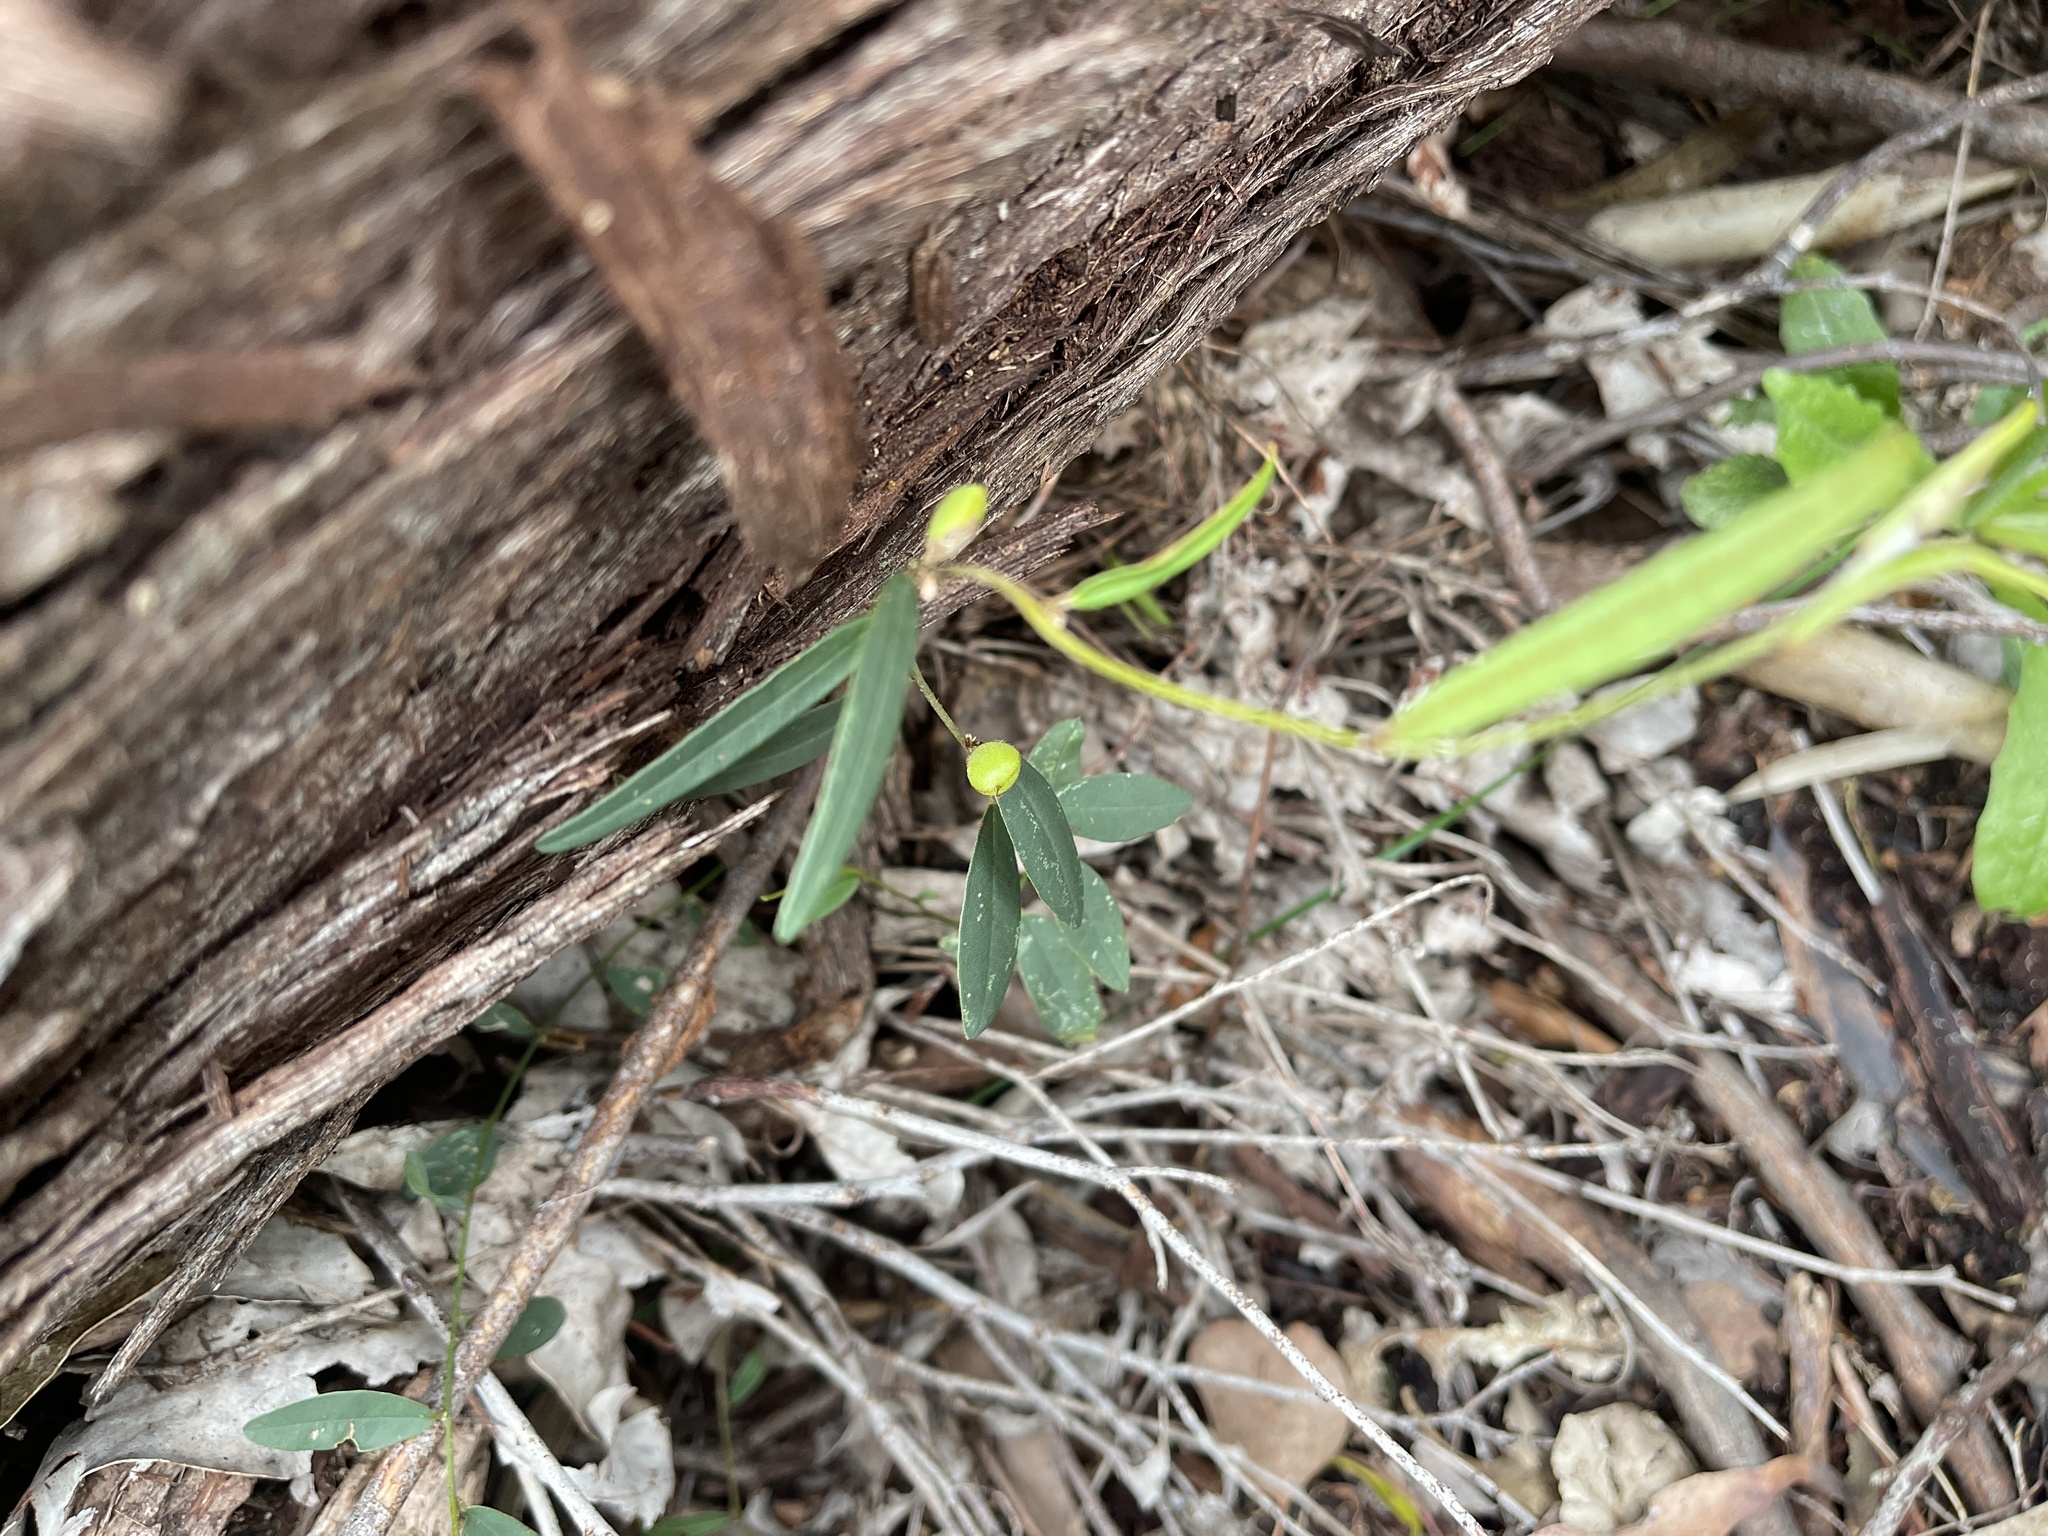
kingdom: Plantae
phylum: Tracheophyta
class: Magnoliopsida
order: Fabales
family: Fabaceae
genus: Glycine
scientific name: Glycine clandestina
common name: Twining glycine
